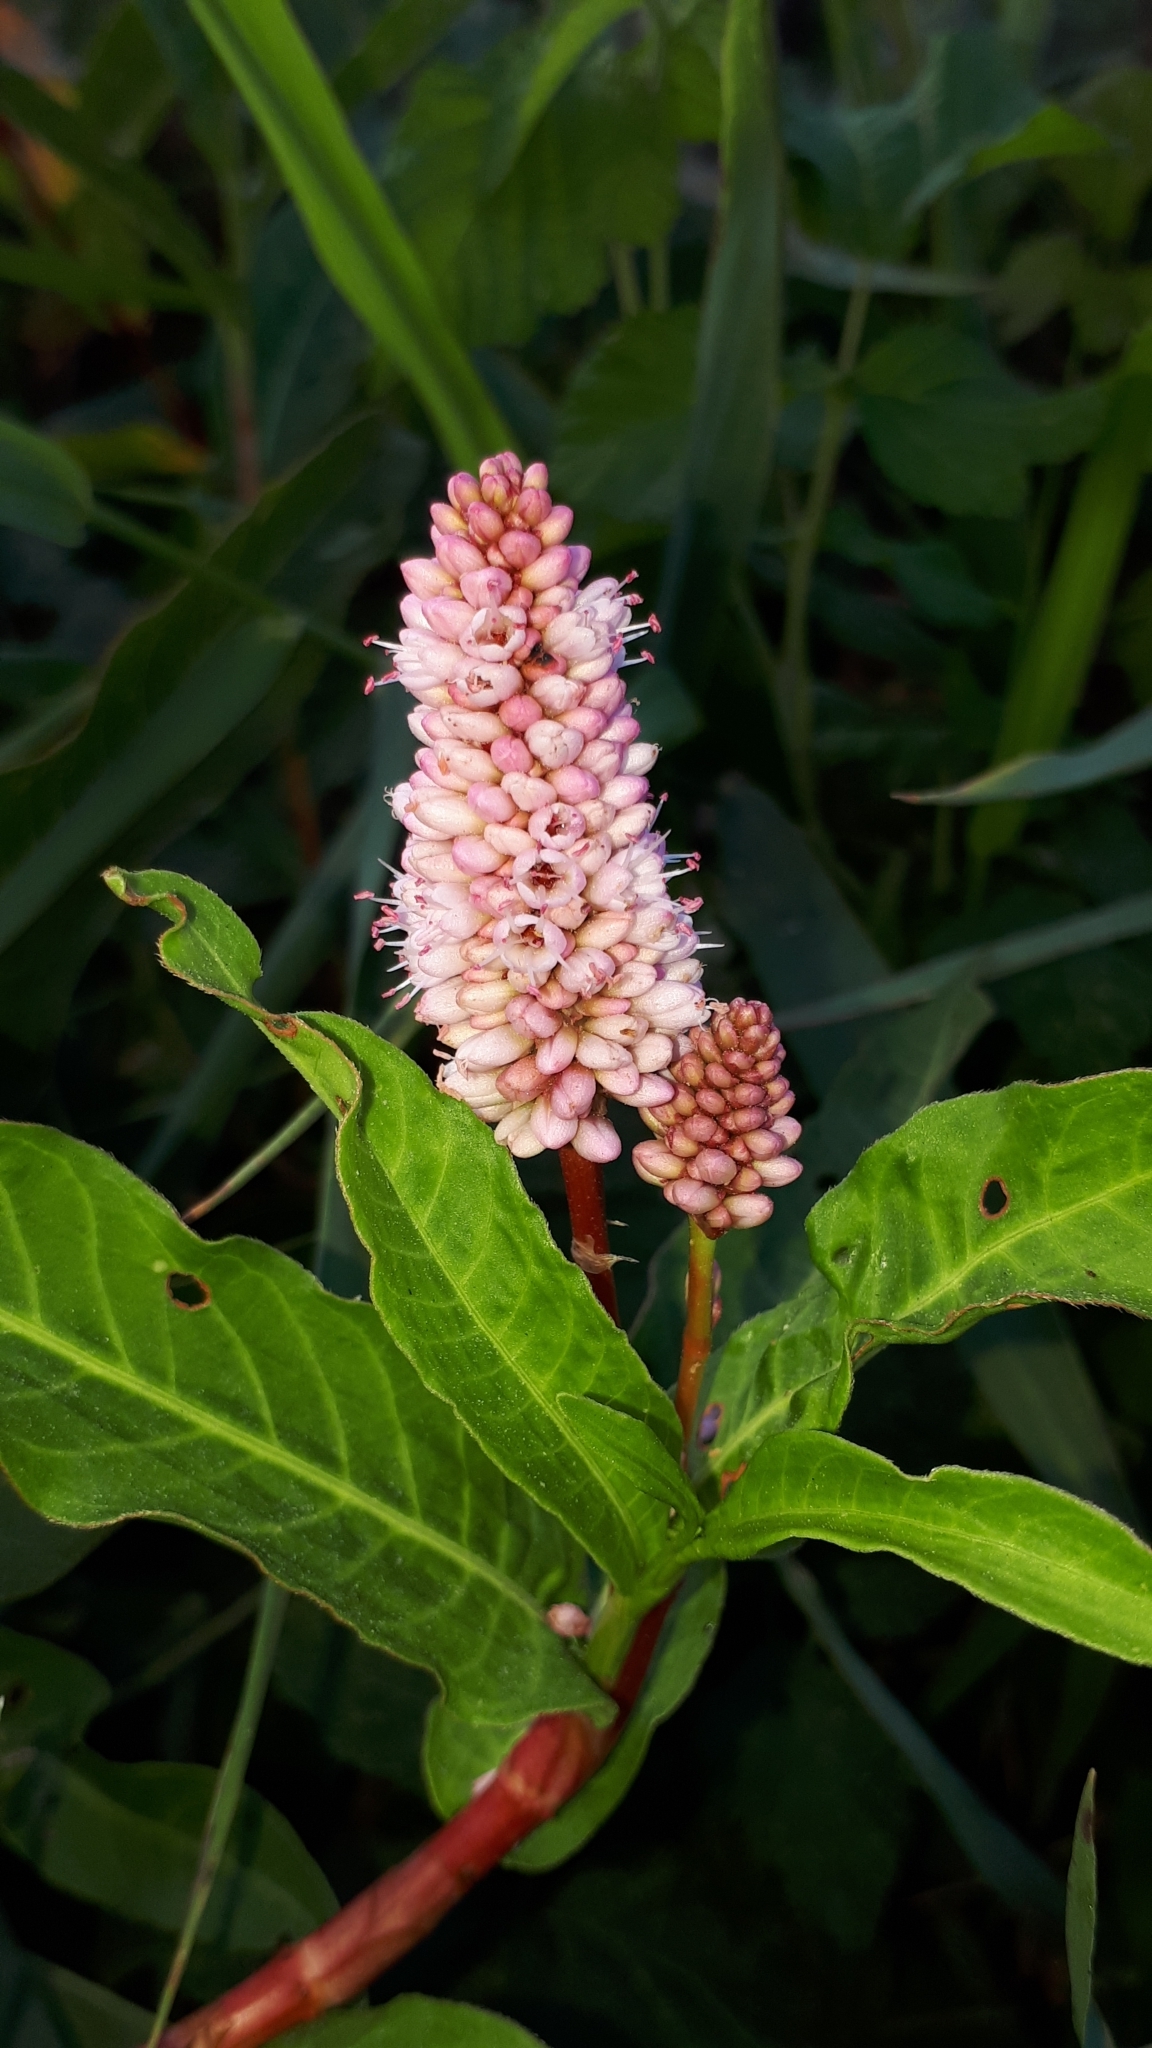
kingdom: Plantae
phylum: Tracheophyta
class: Magnoliopsida
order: Caryophyllales
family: Polygonaceae
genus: Persicaria
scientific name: Persicaria amphibia
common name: Amphibious bistort
